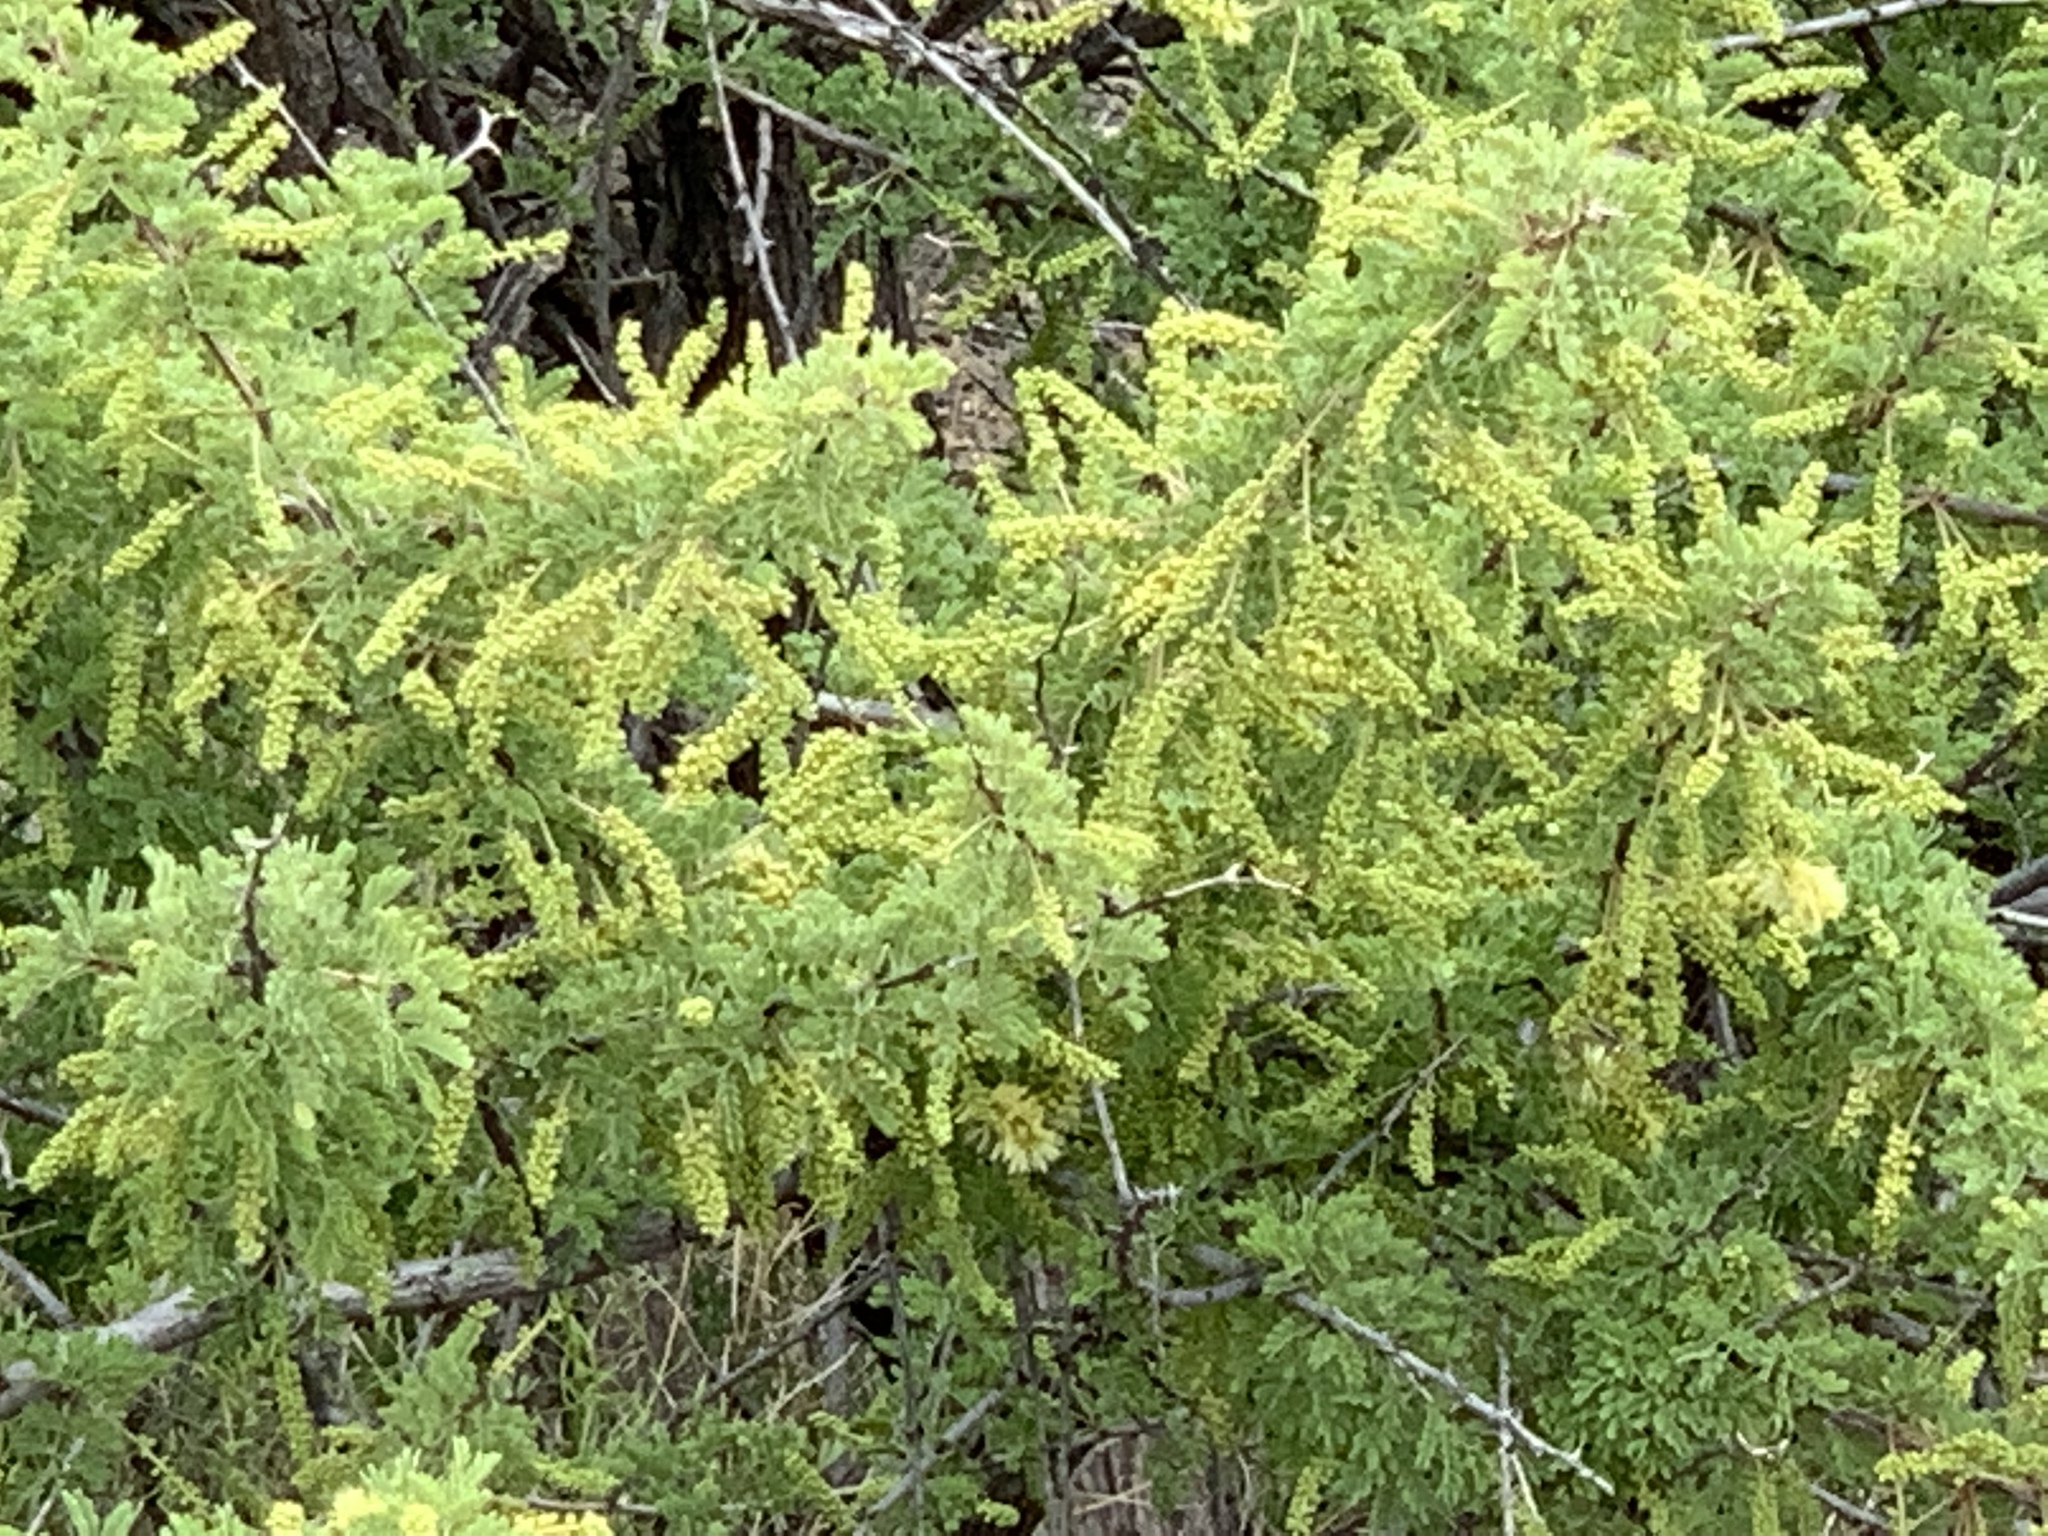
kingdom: Plantae
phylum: Tracheophyta
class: Magnoliopsida
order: Fabales
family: Fabaceae
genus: Senegalia
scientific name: Senegalia greggii
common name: Texas-mimosa
